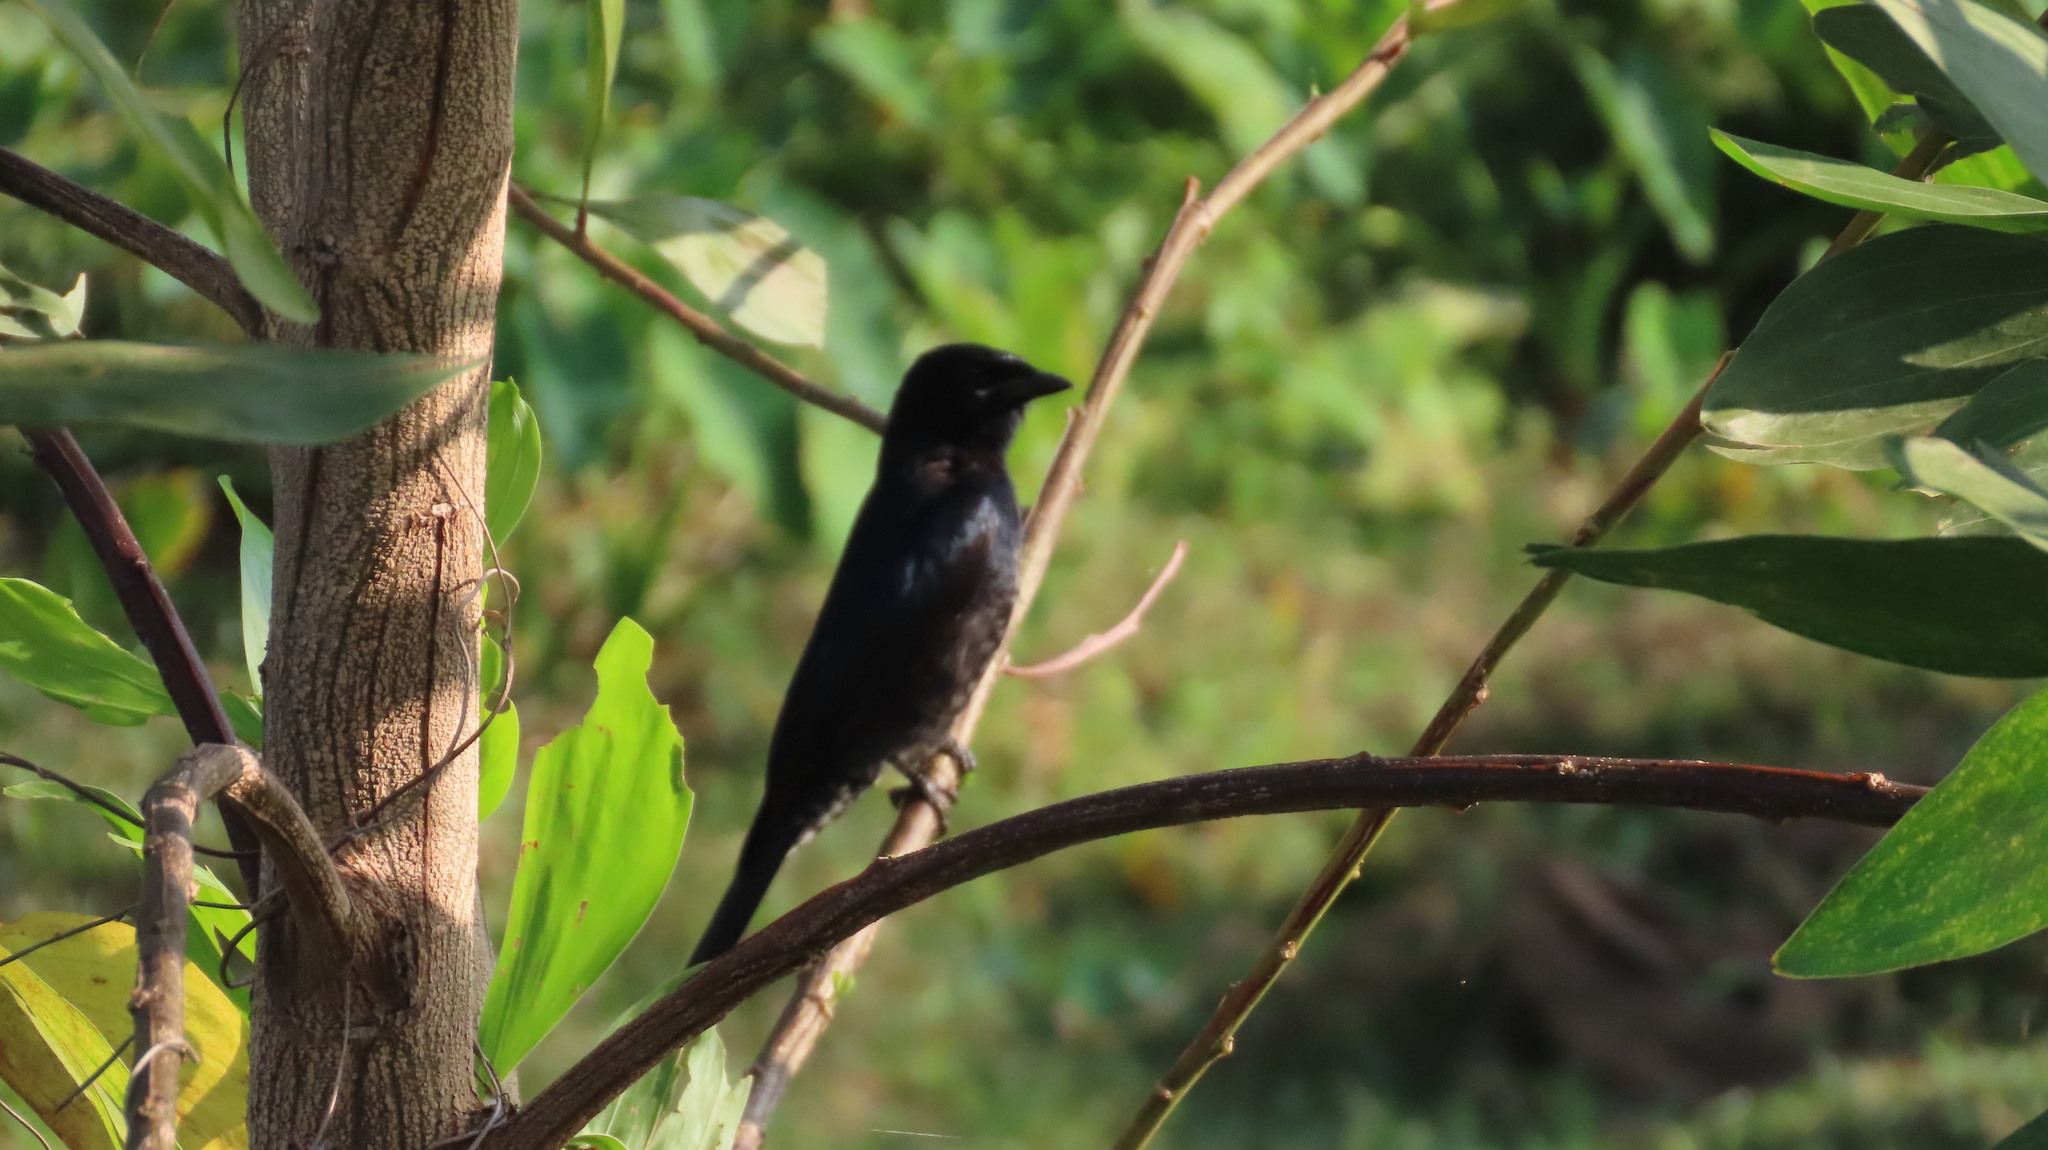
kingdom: Animalia
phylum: Chordata
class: Aves
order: Passeriformes
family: Dicruridae
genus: Dicrurus
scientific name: Dicrurus macrocercus
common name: Black drongo
